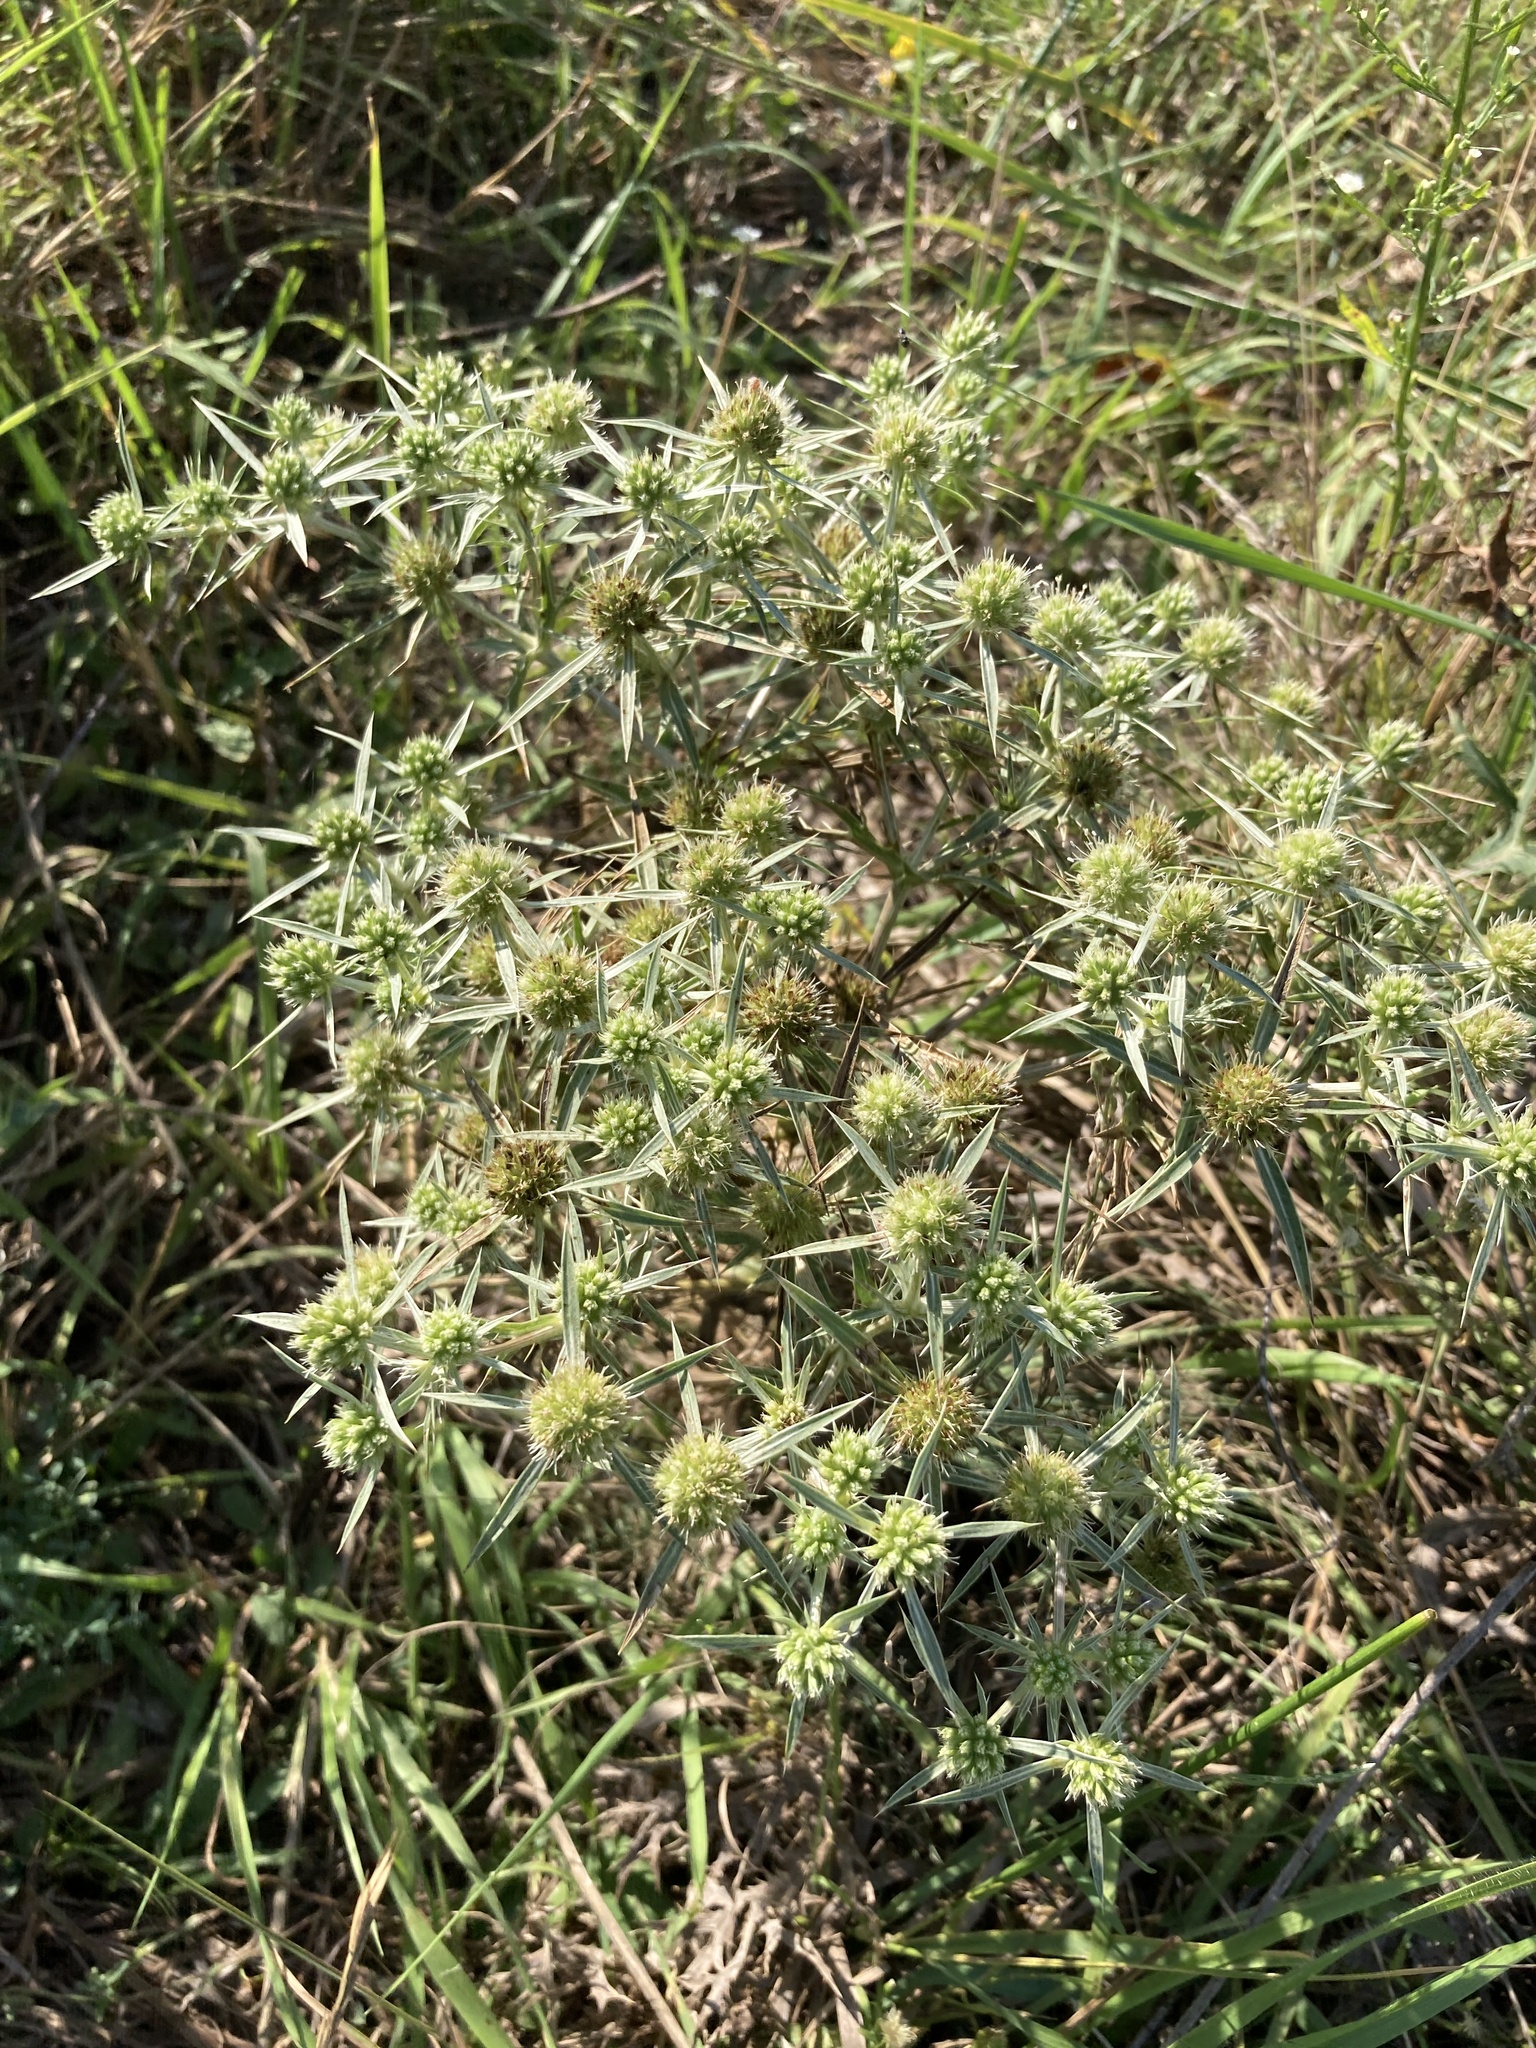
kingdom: Plantae
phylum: Tracheophyta
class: Magnoliopsida
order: Apiales
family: Apiaceae
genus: Eryngium
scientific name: Eryngium campestre
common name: Field eryngo
